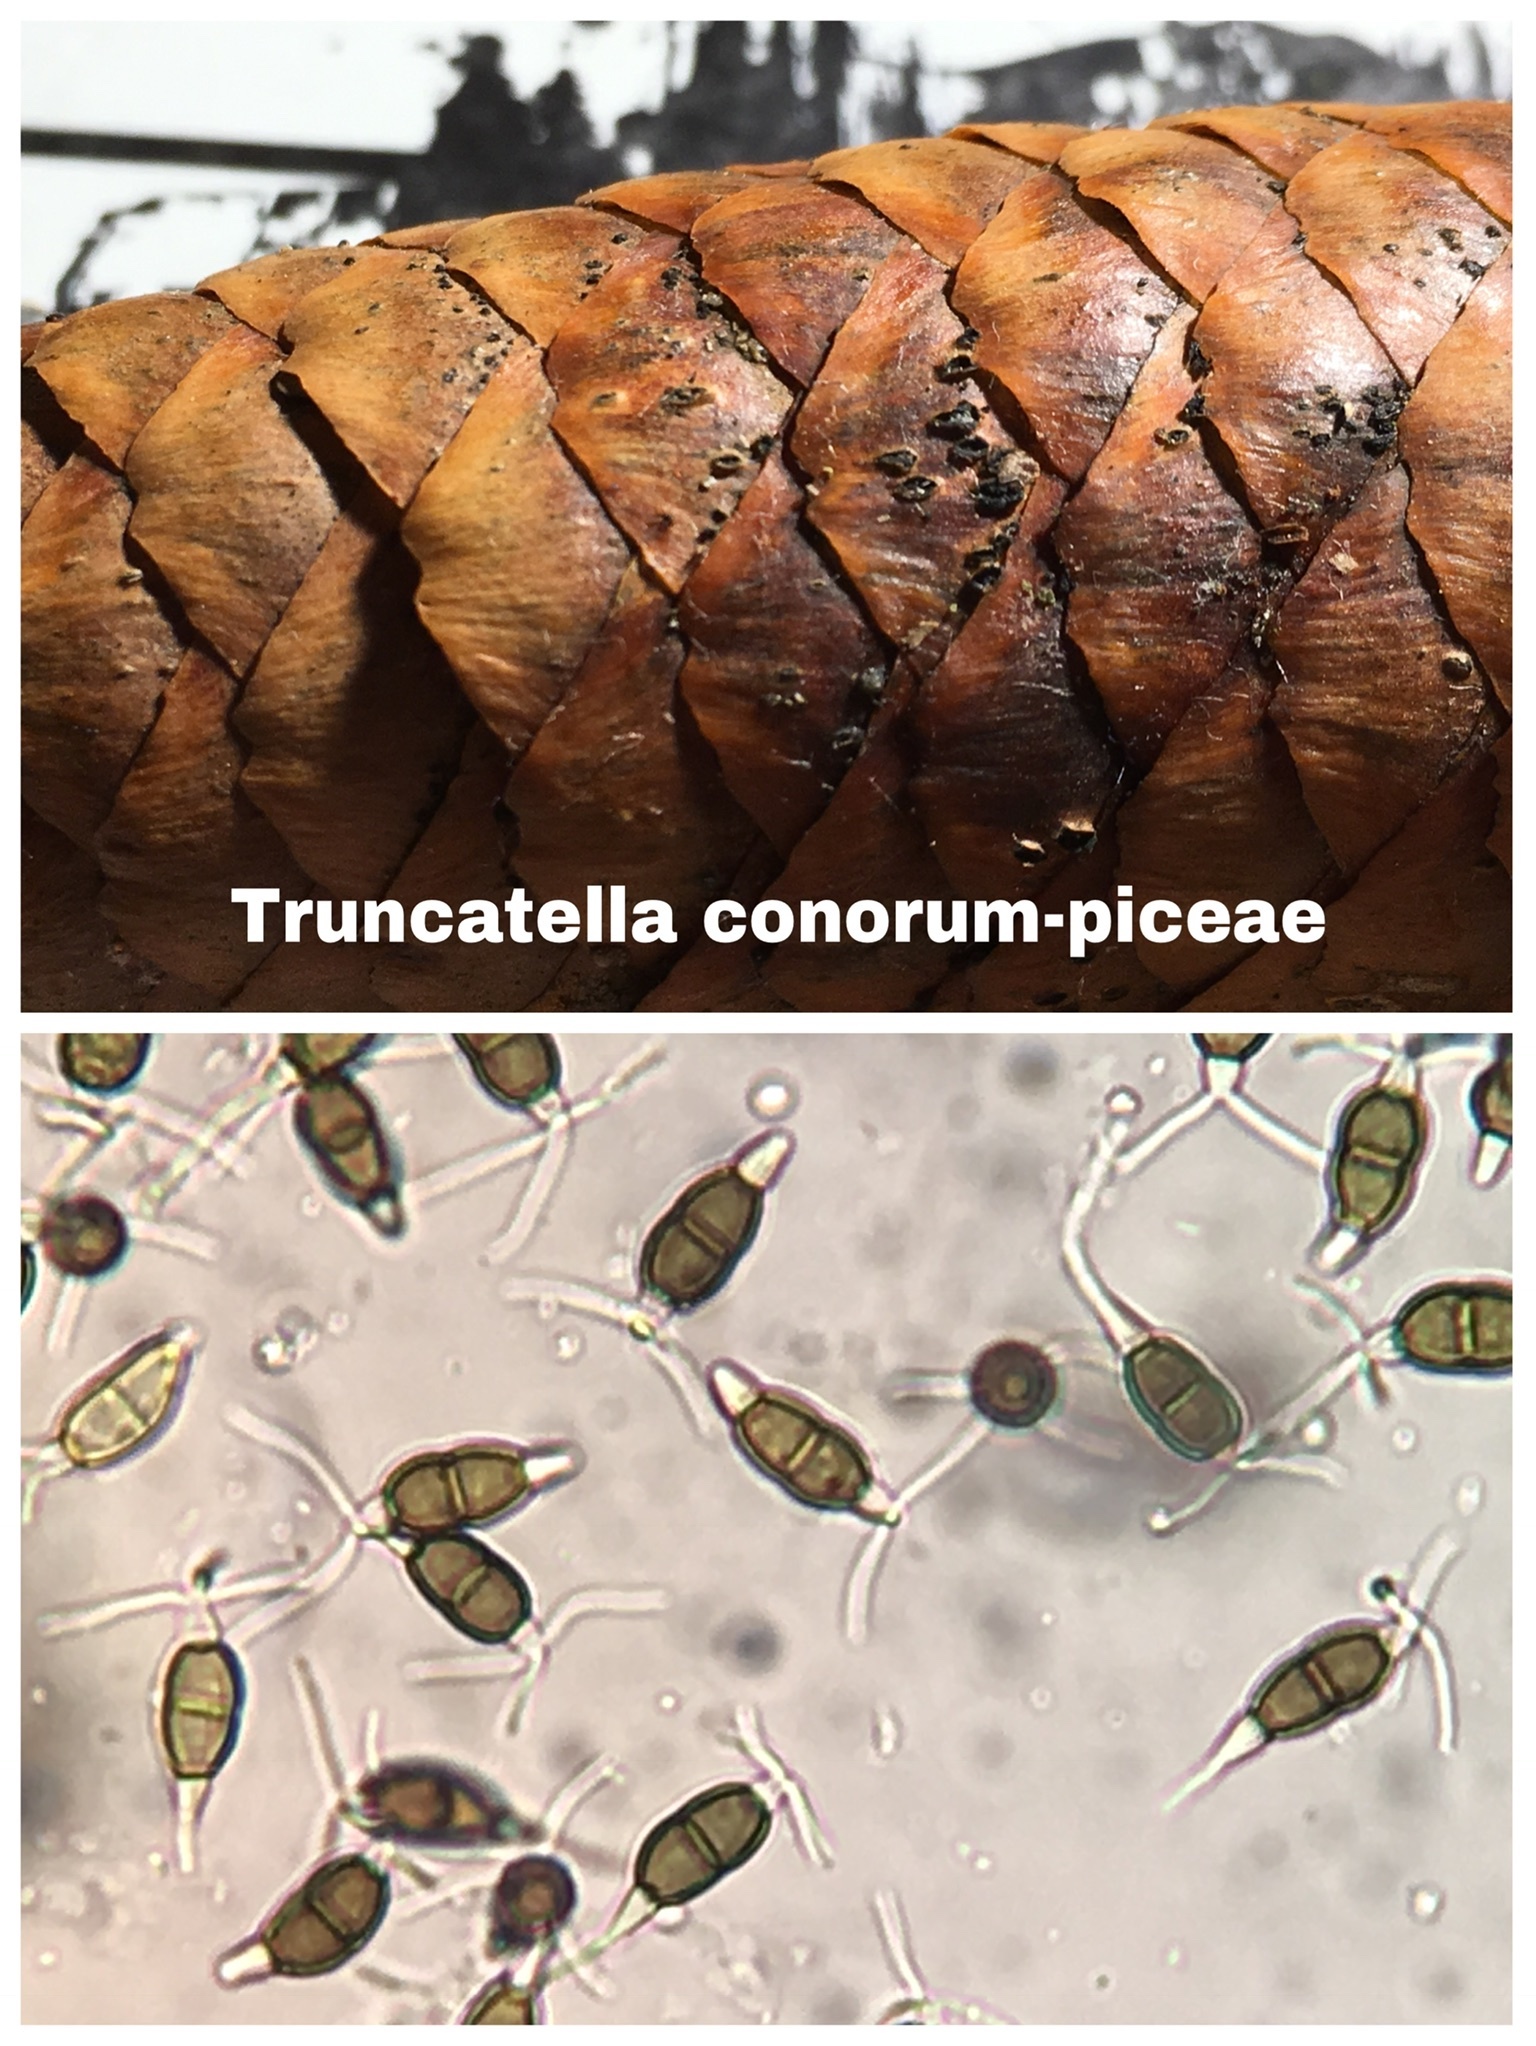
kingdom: Fungi
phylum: Ascomycota
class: Sordariomycetes
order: Amphisphaeriales
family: Bartaliniaceae
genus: Truncatella
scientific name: Truncatella conorum-piceae
